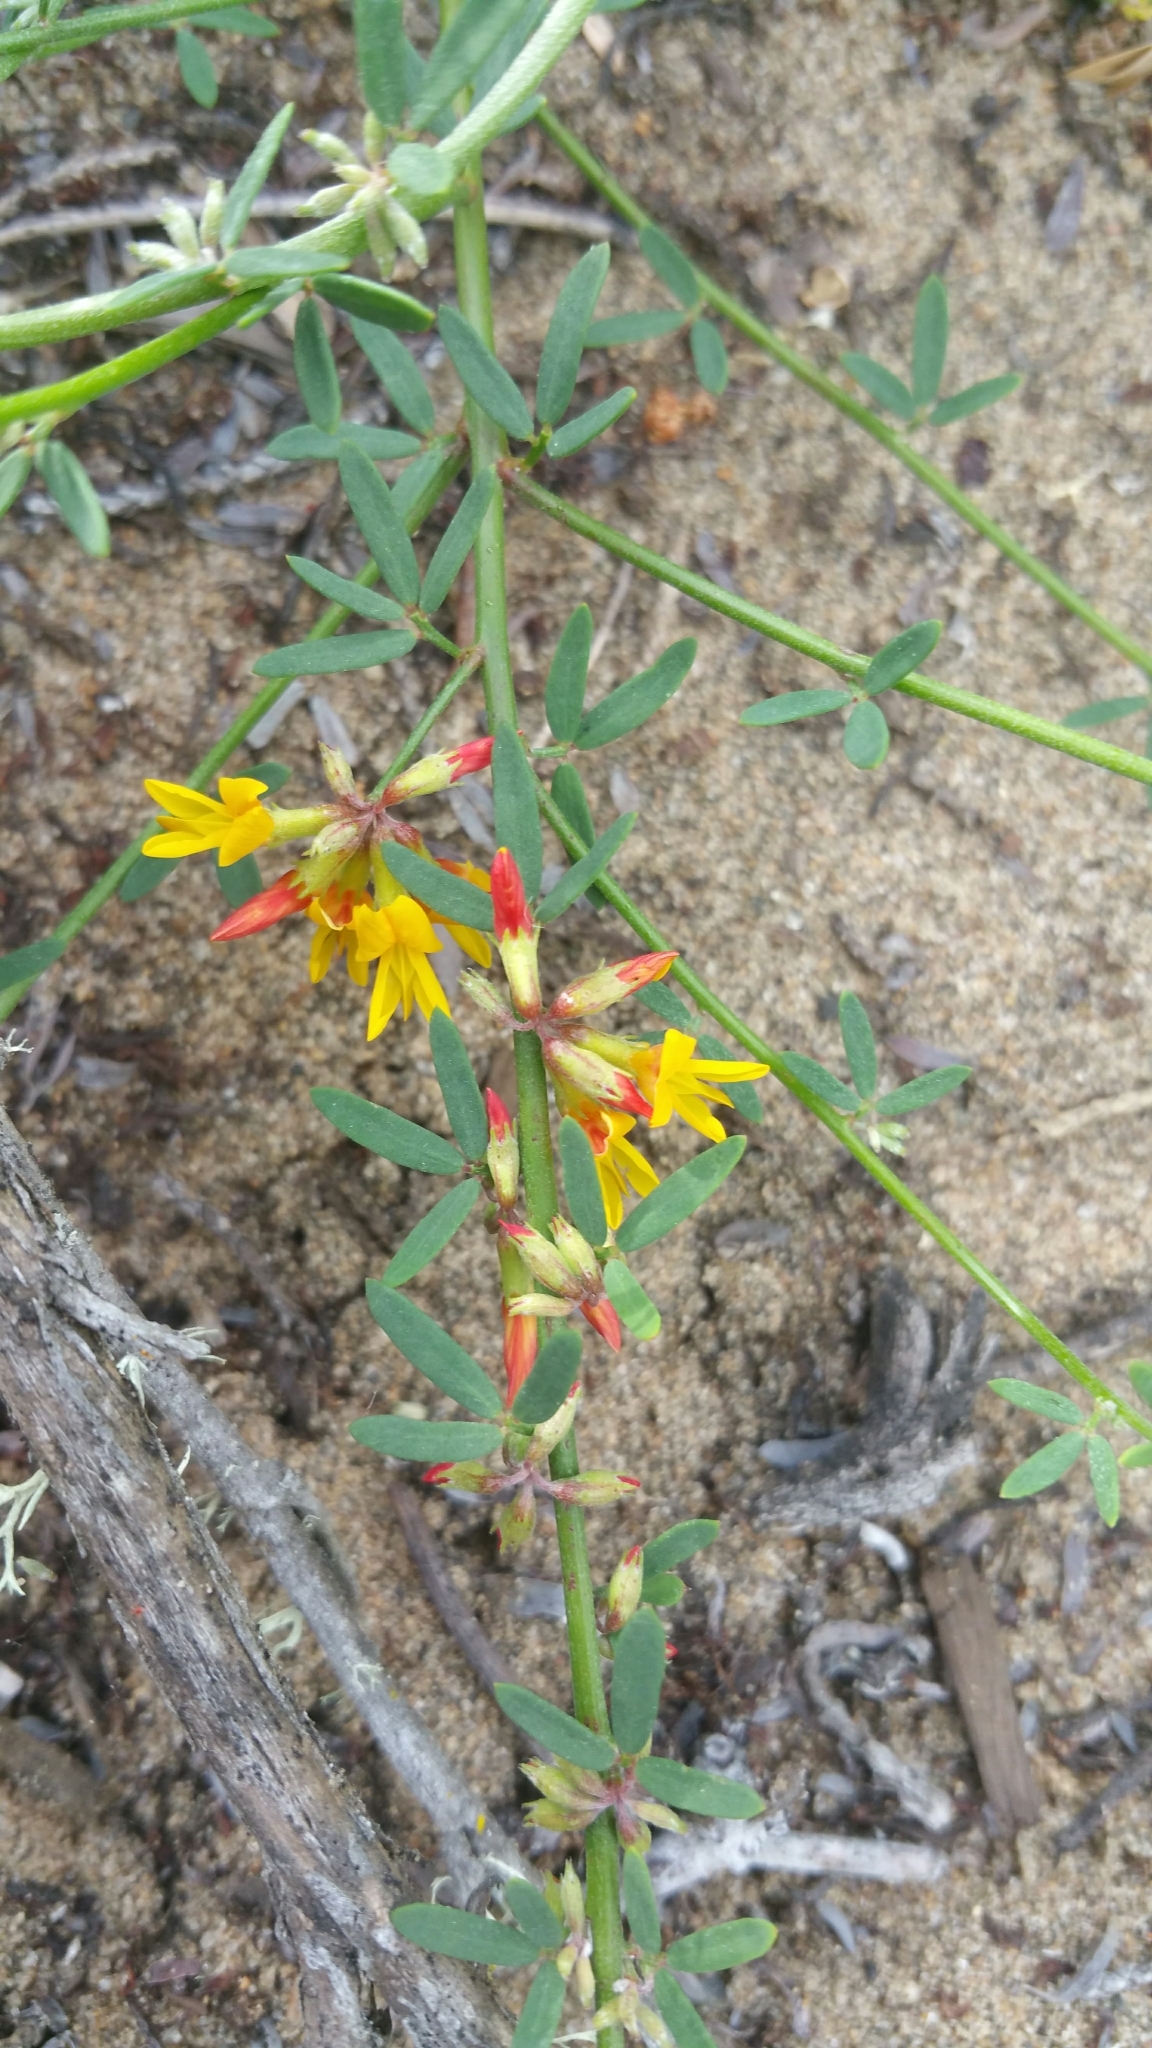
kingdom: Plantae
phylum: Tracheophyta
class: Magnoliopsida
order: Fabales
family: Fabaceae
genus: Acmispon
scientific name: Acmispon glaber
